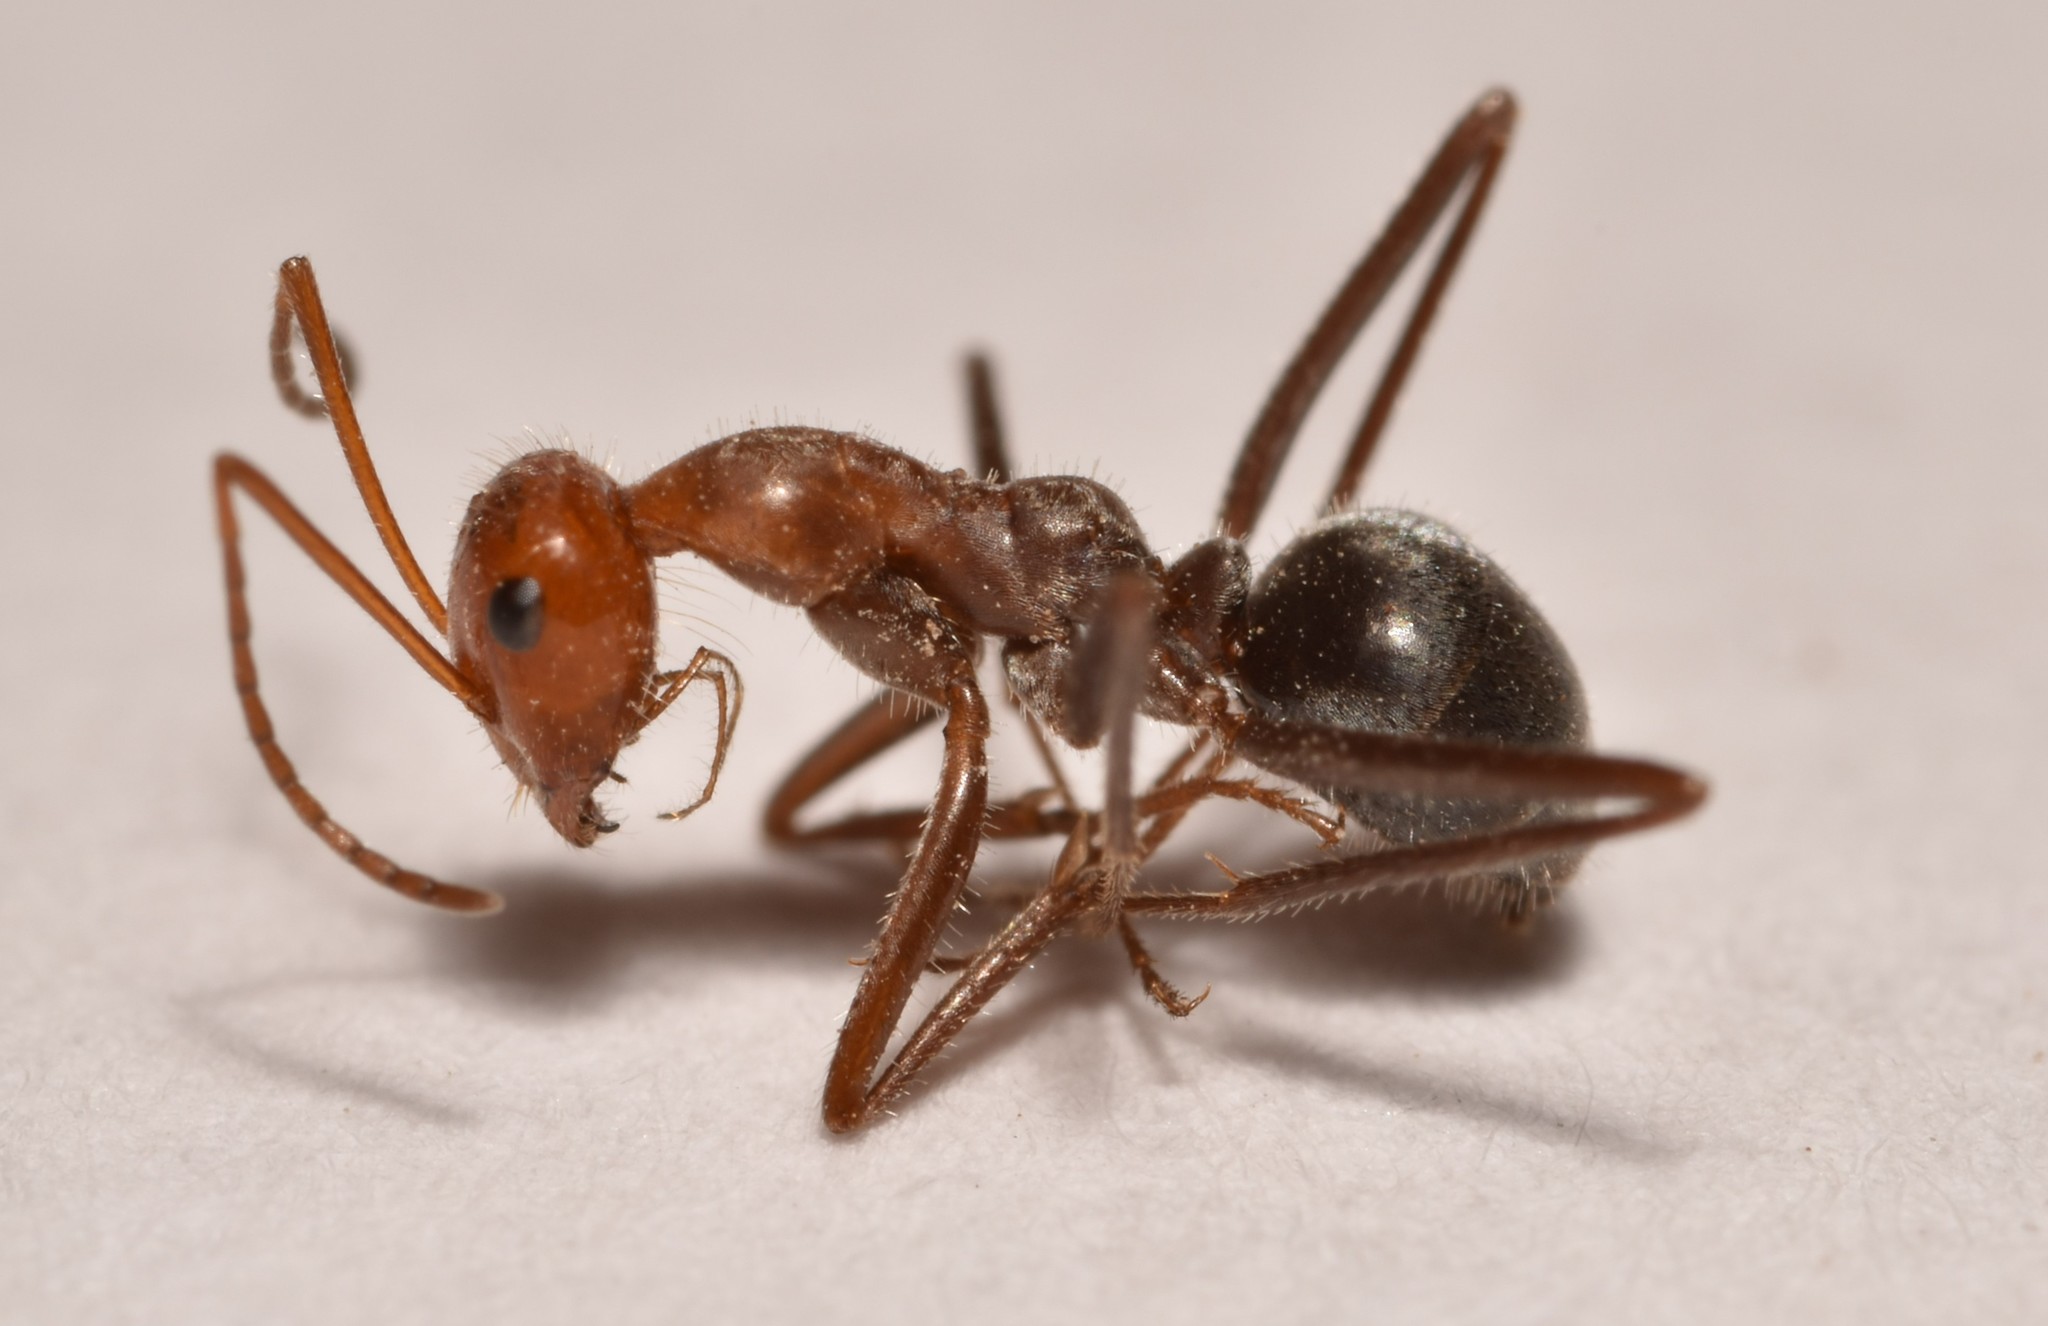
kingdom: Animalia
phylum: Arthropoda
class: Insecta
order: Hymenoptera
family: Formicidae
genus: Myrmecocystus
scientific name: Myrmecocystus mendax
